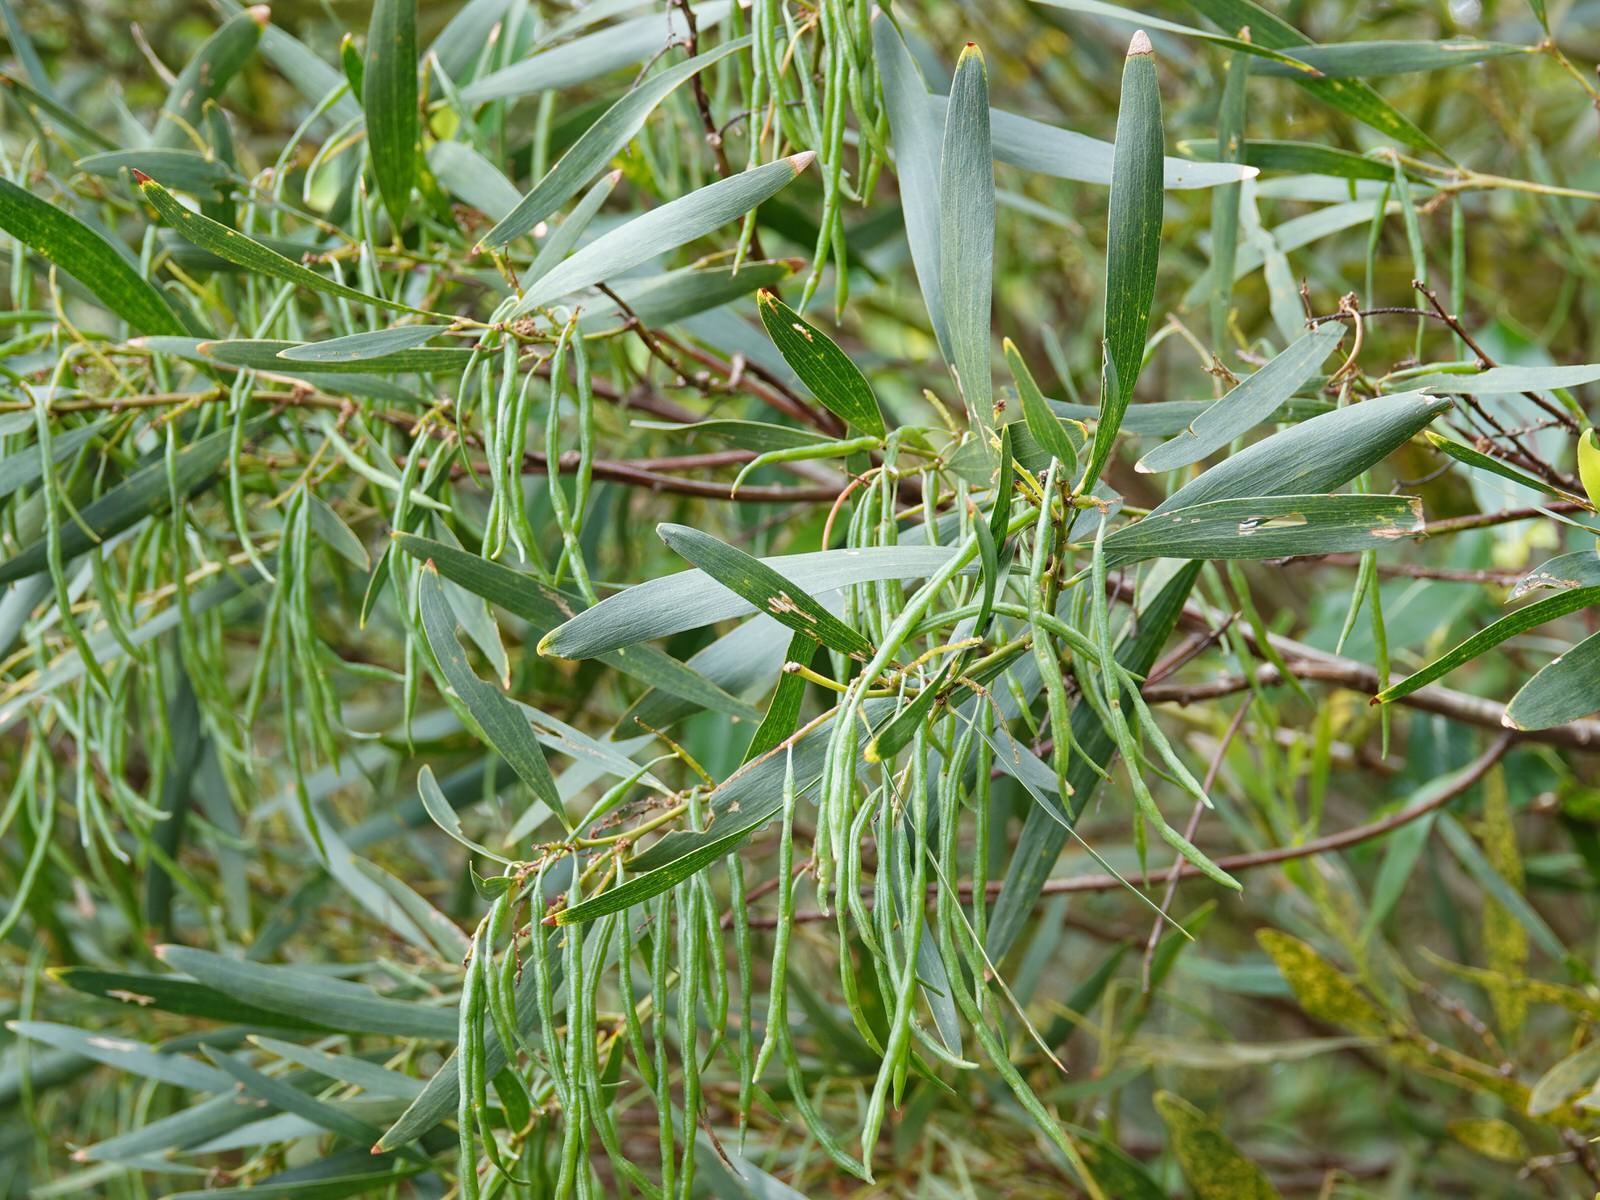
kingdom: Plantae
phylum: Tracheophyta
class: Magnoliopsida
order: Fabales
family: Fabaceae
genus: Acacia
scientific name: Acacia longifolia
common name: Sydney golden wattle
